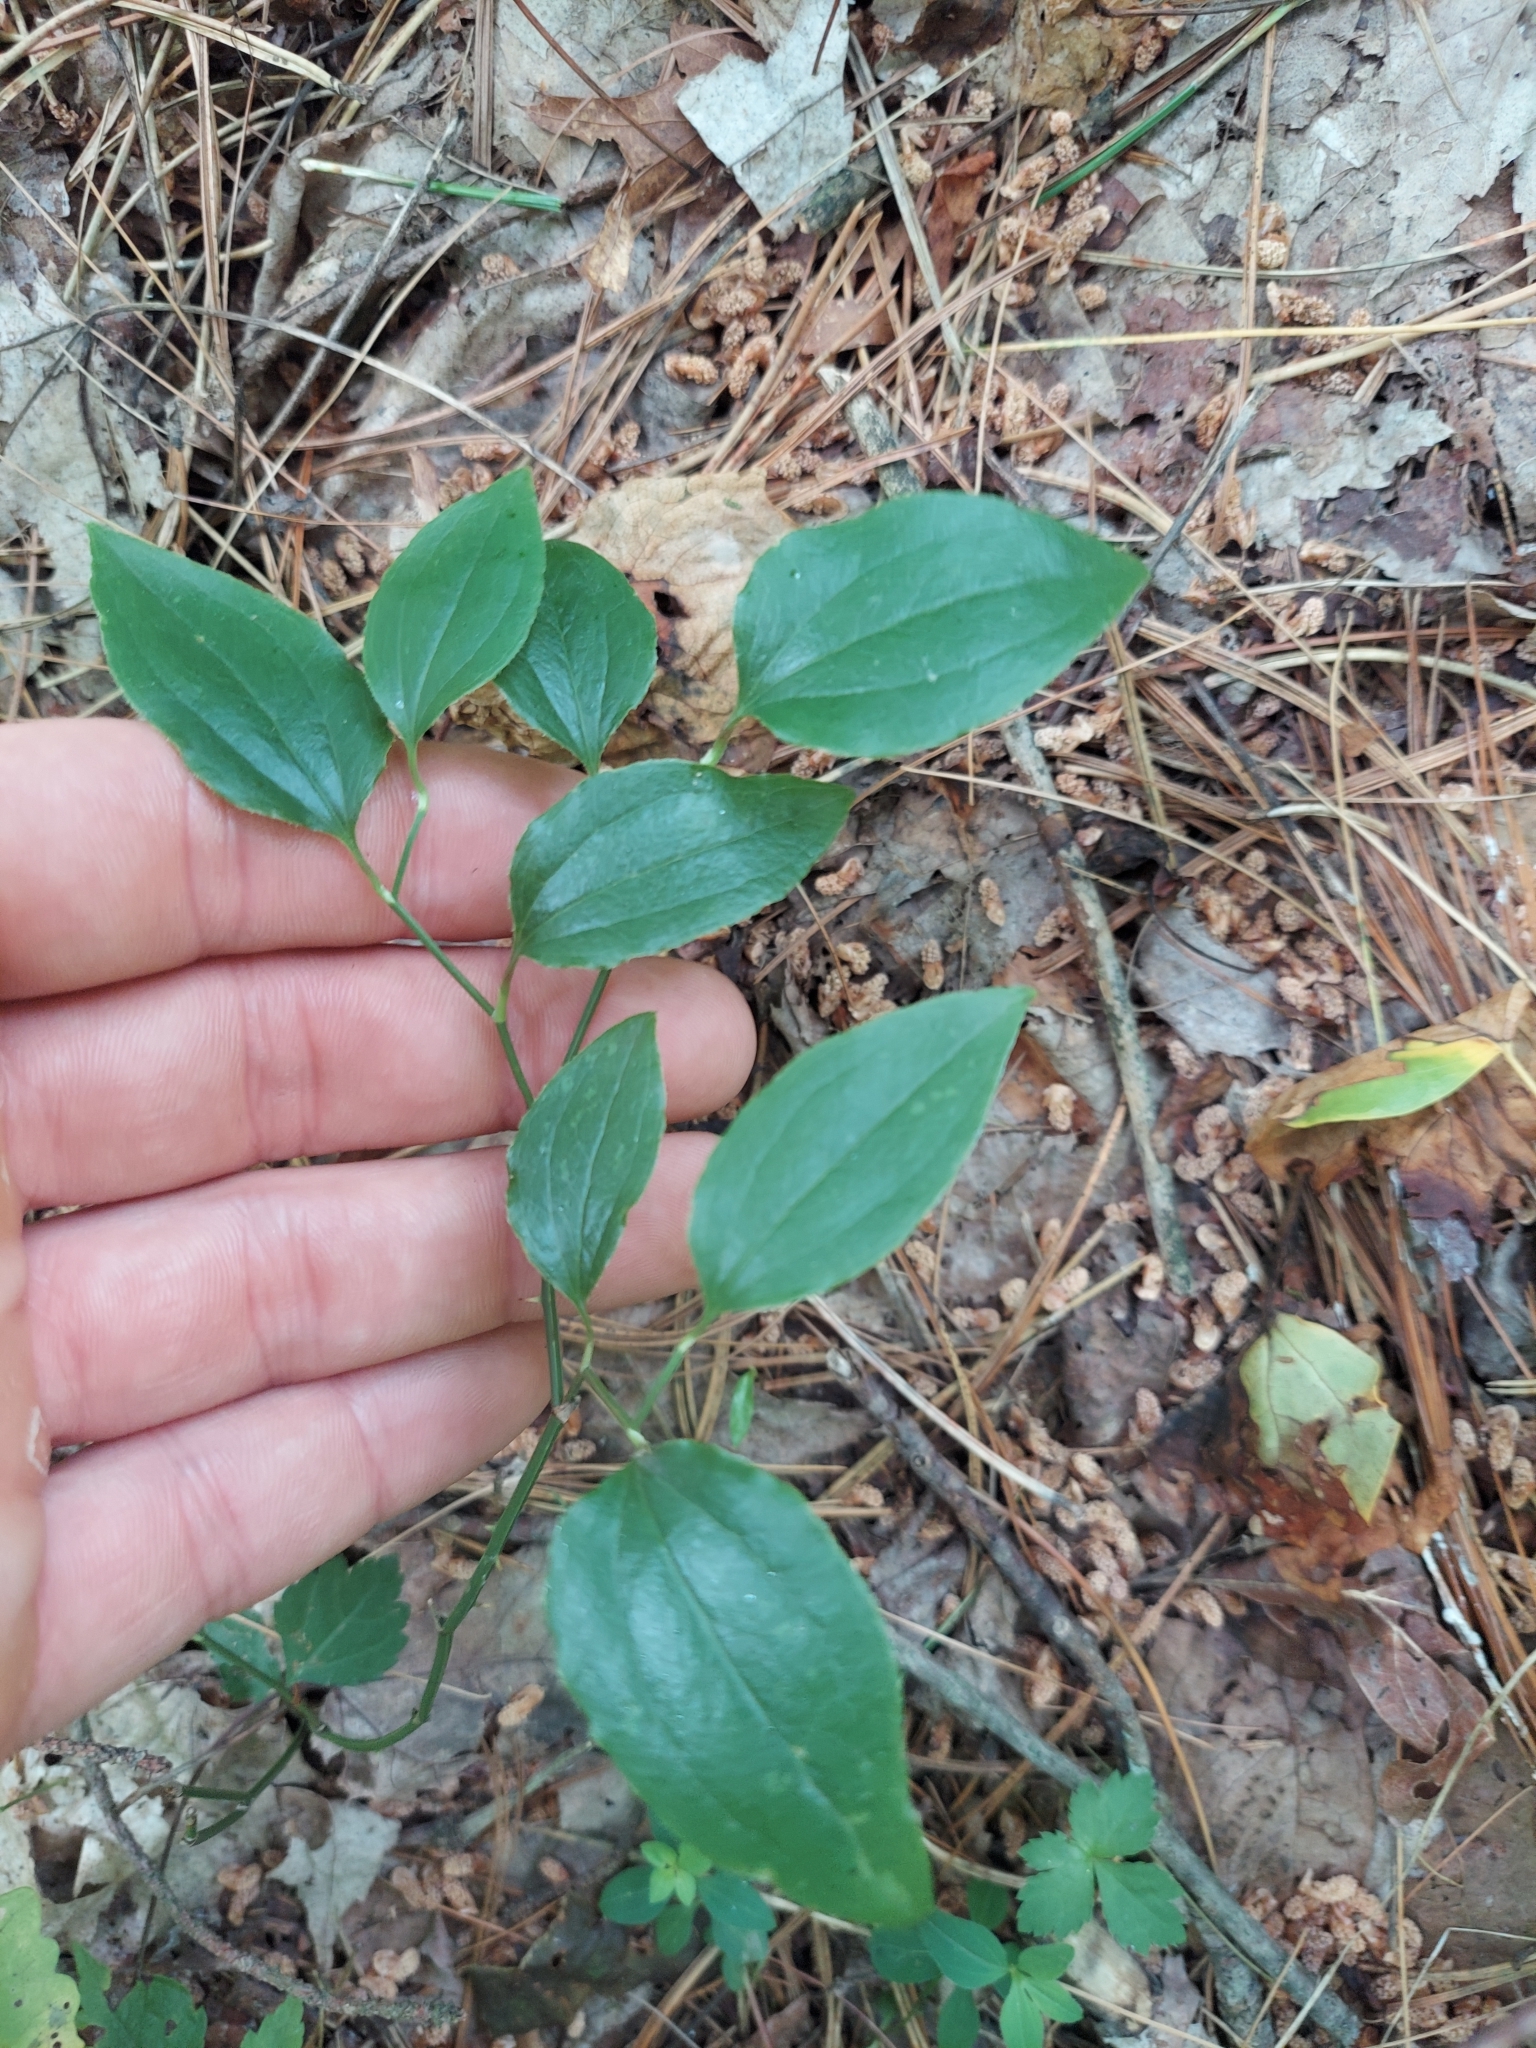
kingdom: Plantae
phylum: Tracheophyta
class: Liliopsida
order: Liliales
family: Smilacaceae
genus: Smilax
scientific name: Smilax tamnoides
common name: Hellfetter
